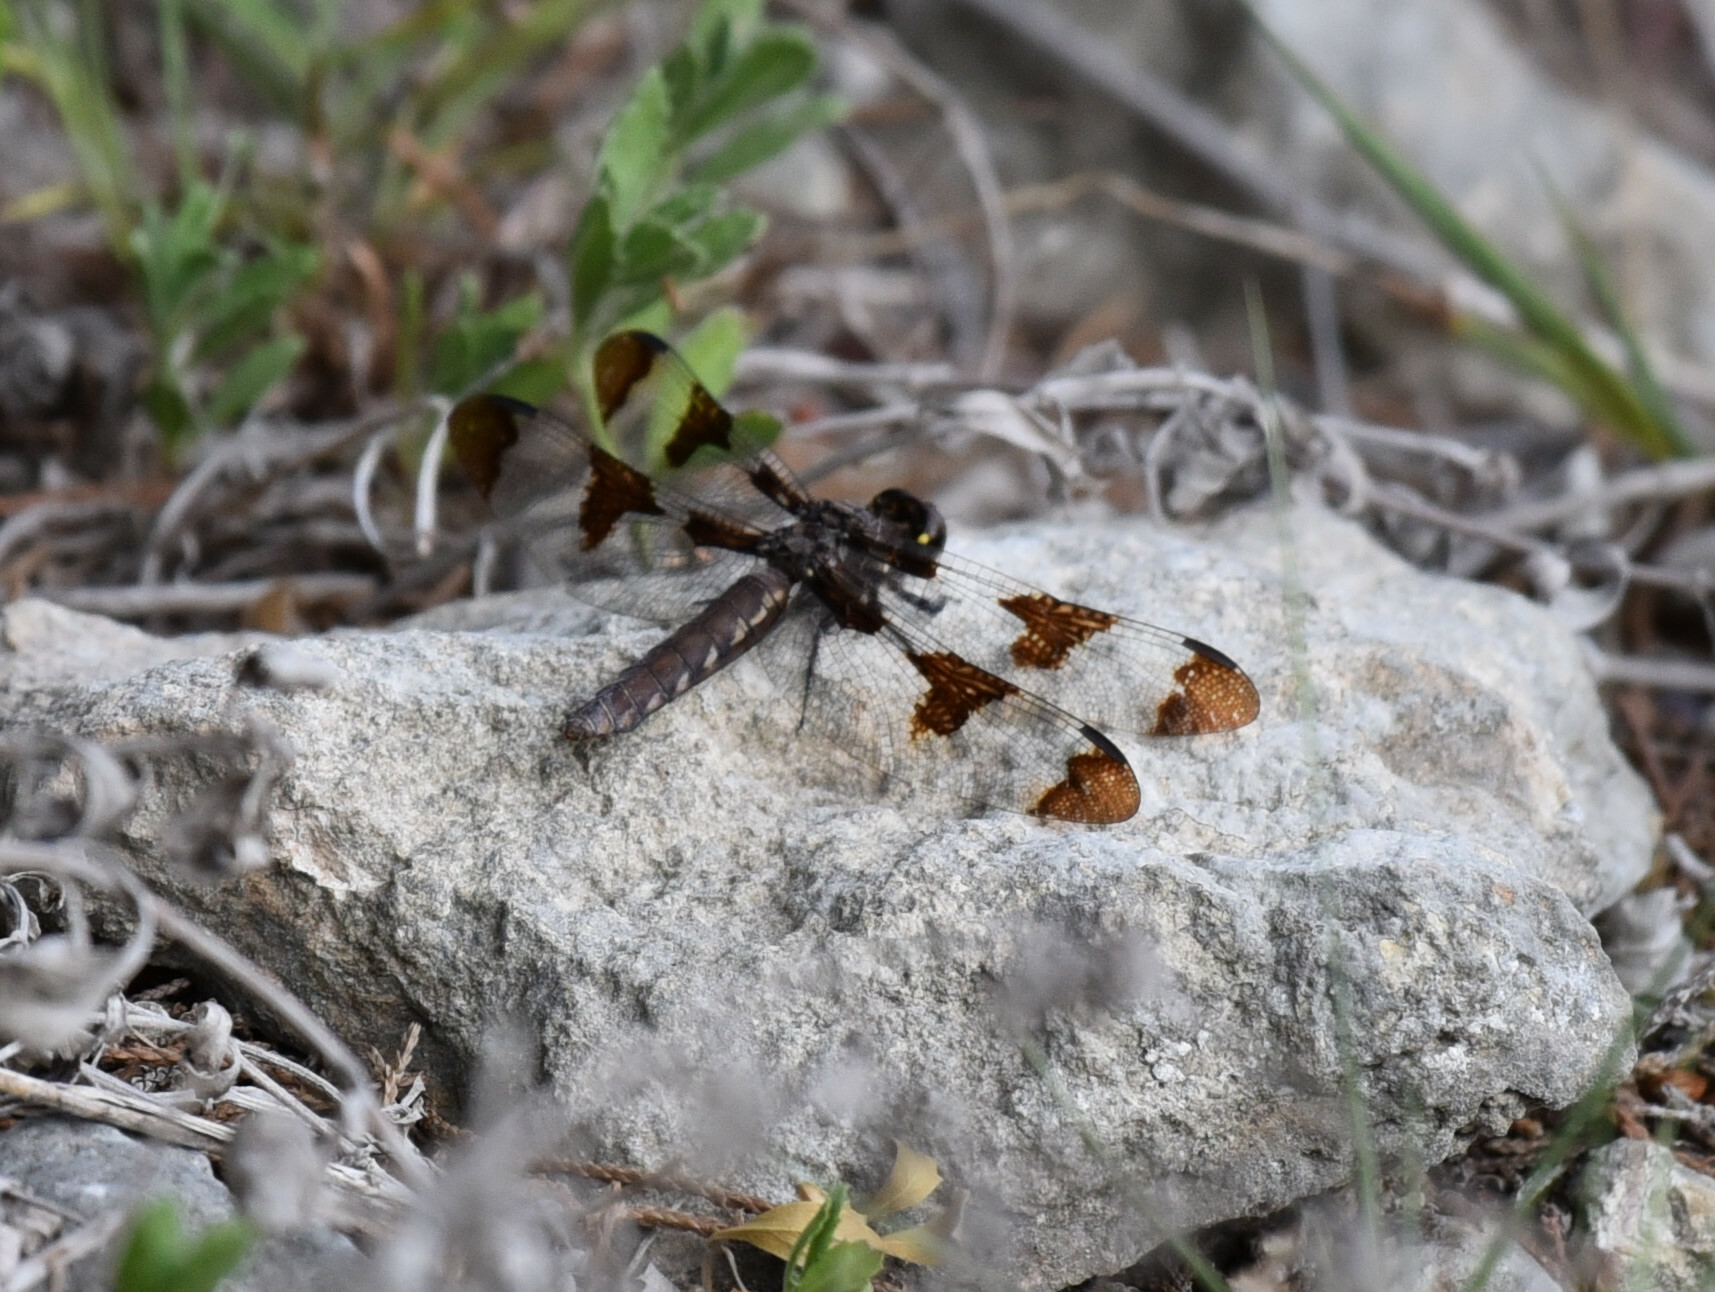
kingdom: Animalia
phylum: Arthropoda
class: Insecta
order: Odonata
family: Libellulidae
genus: Plathemis
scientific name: Plathemis lydia
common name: Common whitetail
